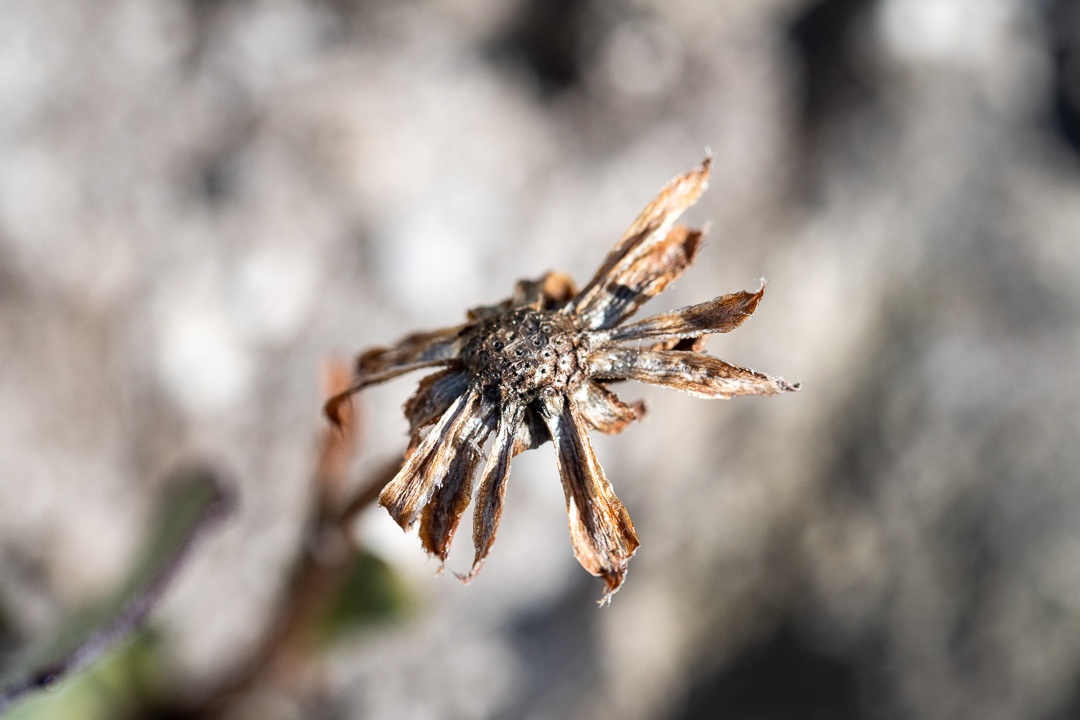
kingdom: Plantae
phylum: Tracheophyta
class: Magnoliopsida
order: Asterales
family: Asteraceae
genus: Mairia
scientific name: Mairia coriacea
